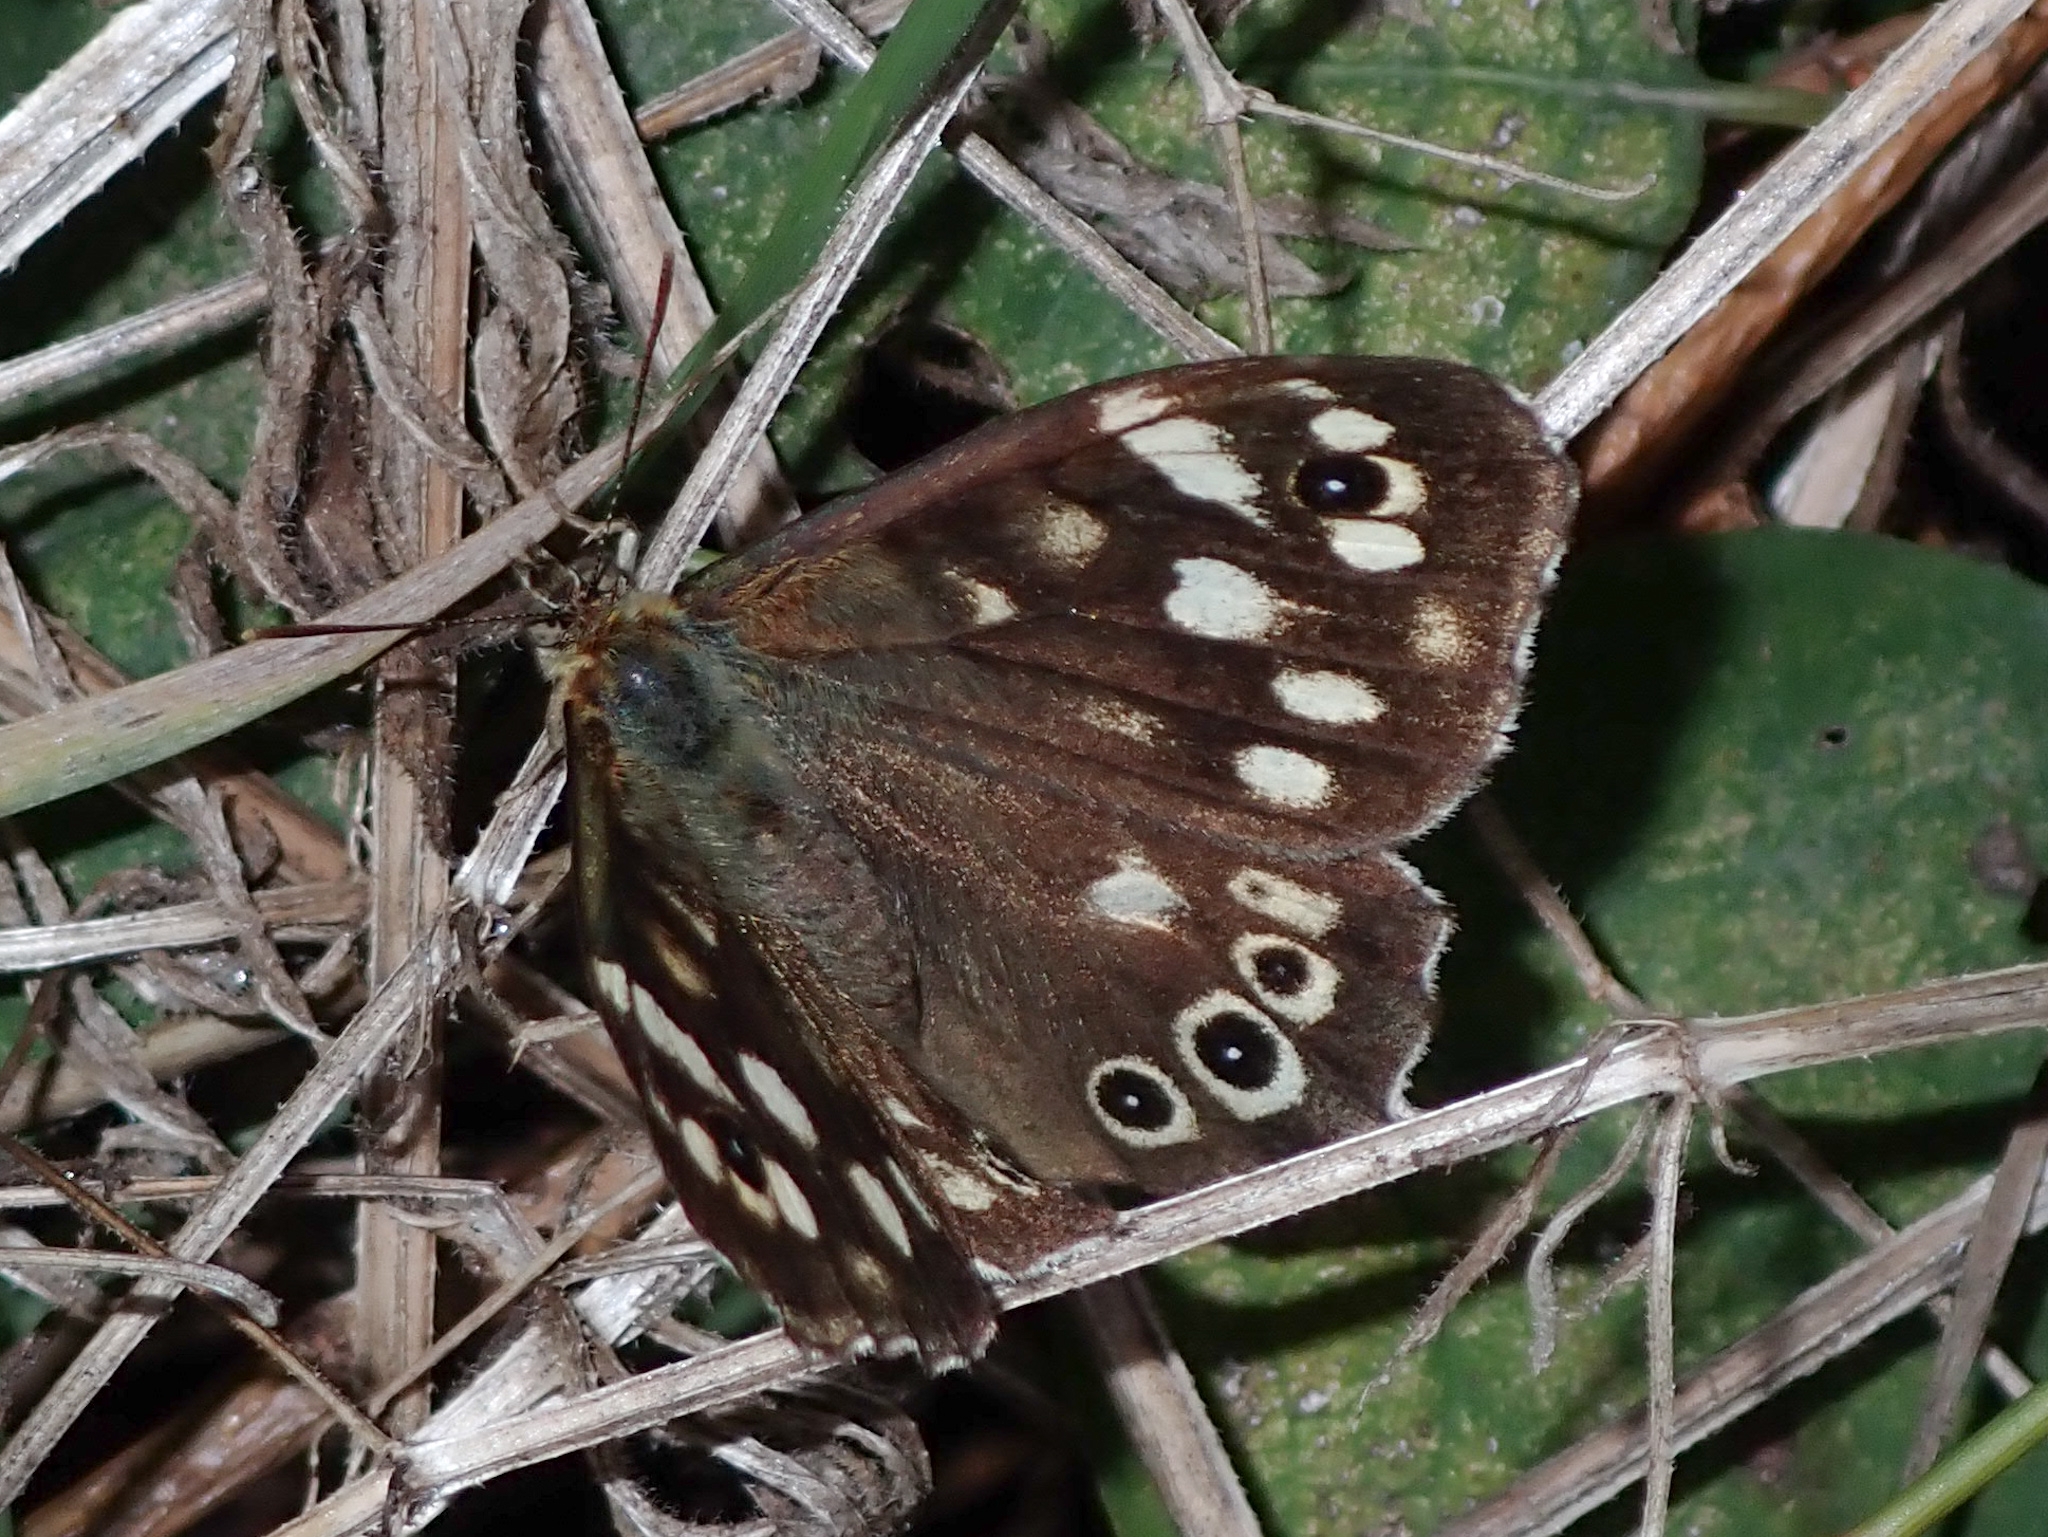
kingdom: Animalia
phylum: Arthropoda
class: Insecta
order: Lepidoptera
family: Nymphalidae
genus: Pararge
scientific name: Pararge aegeria
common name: Speckled wood
